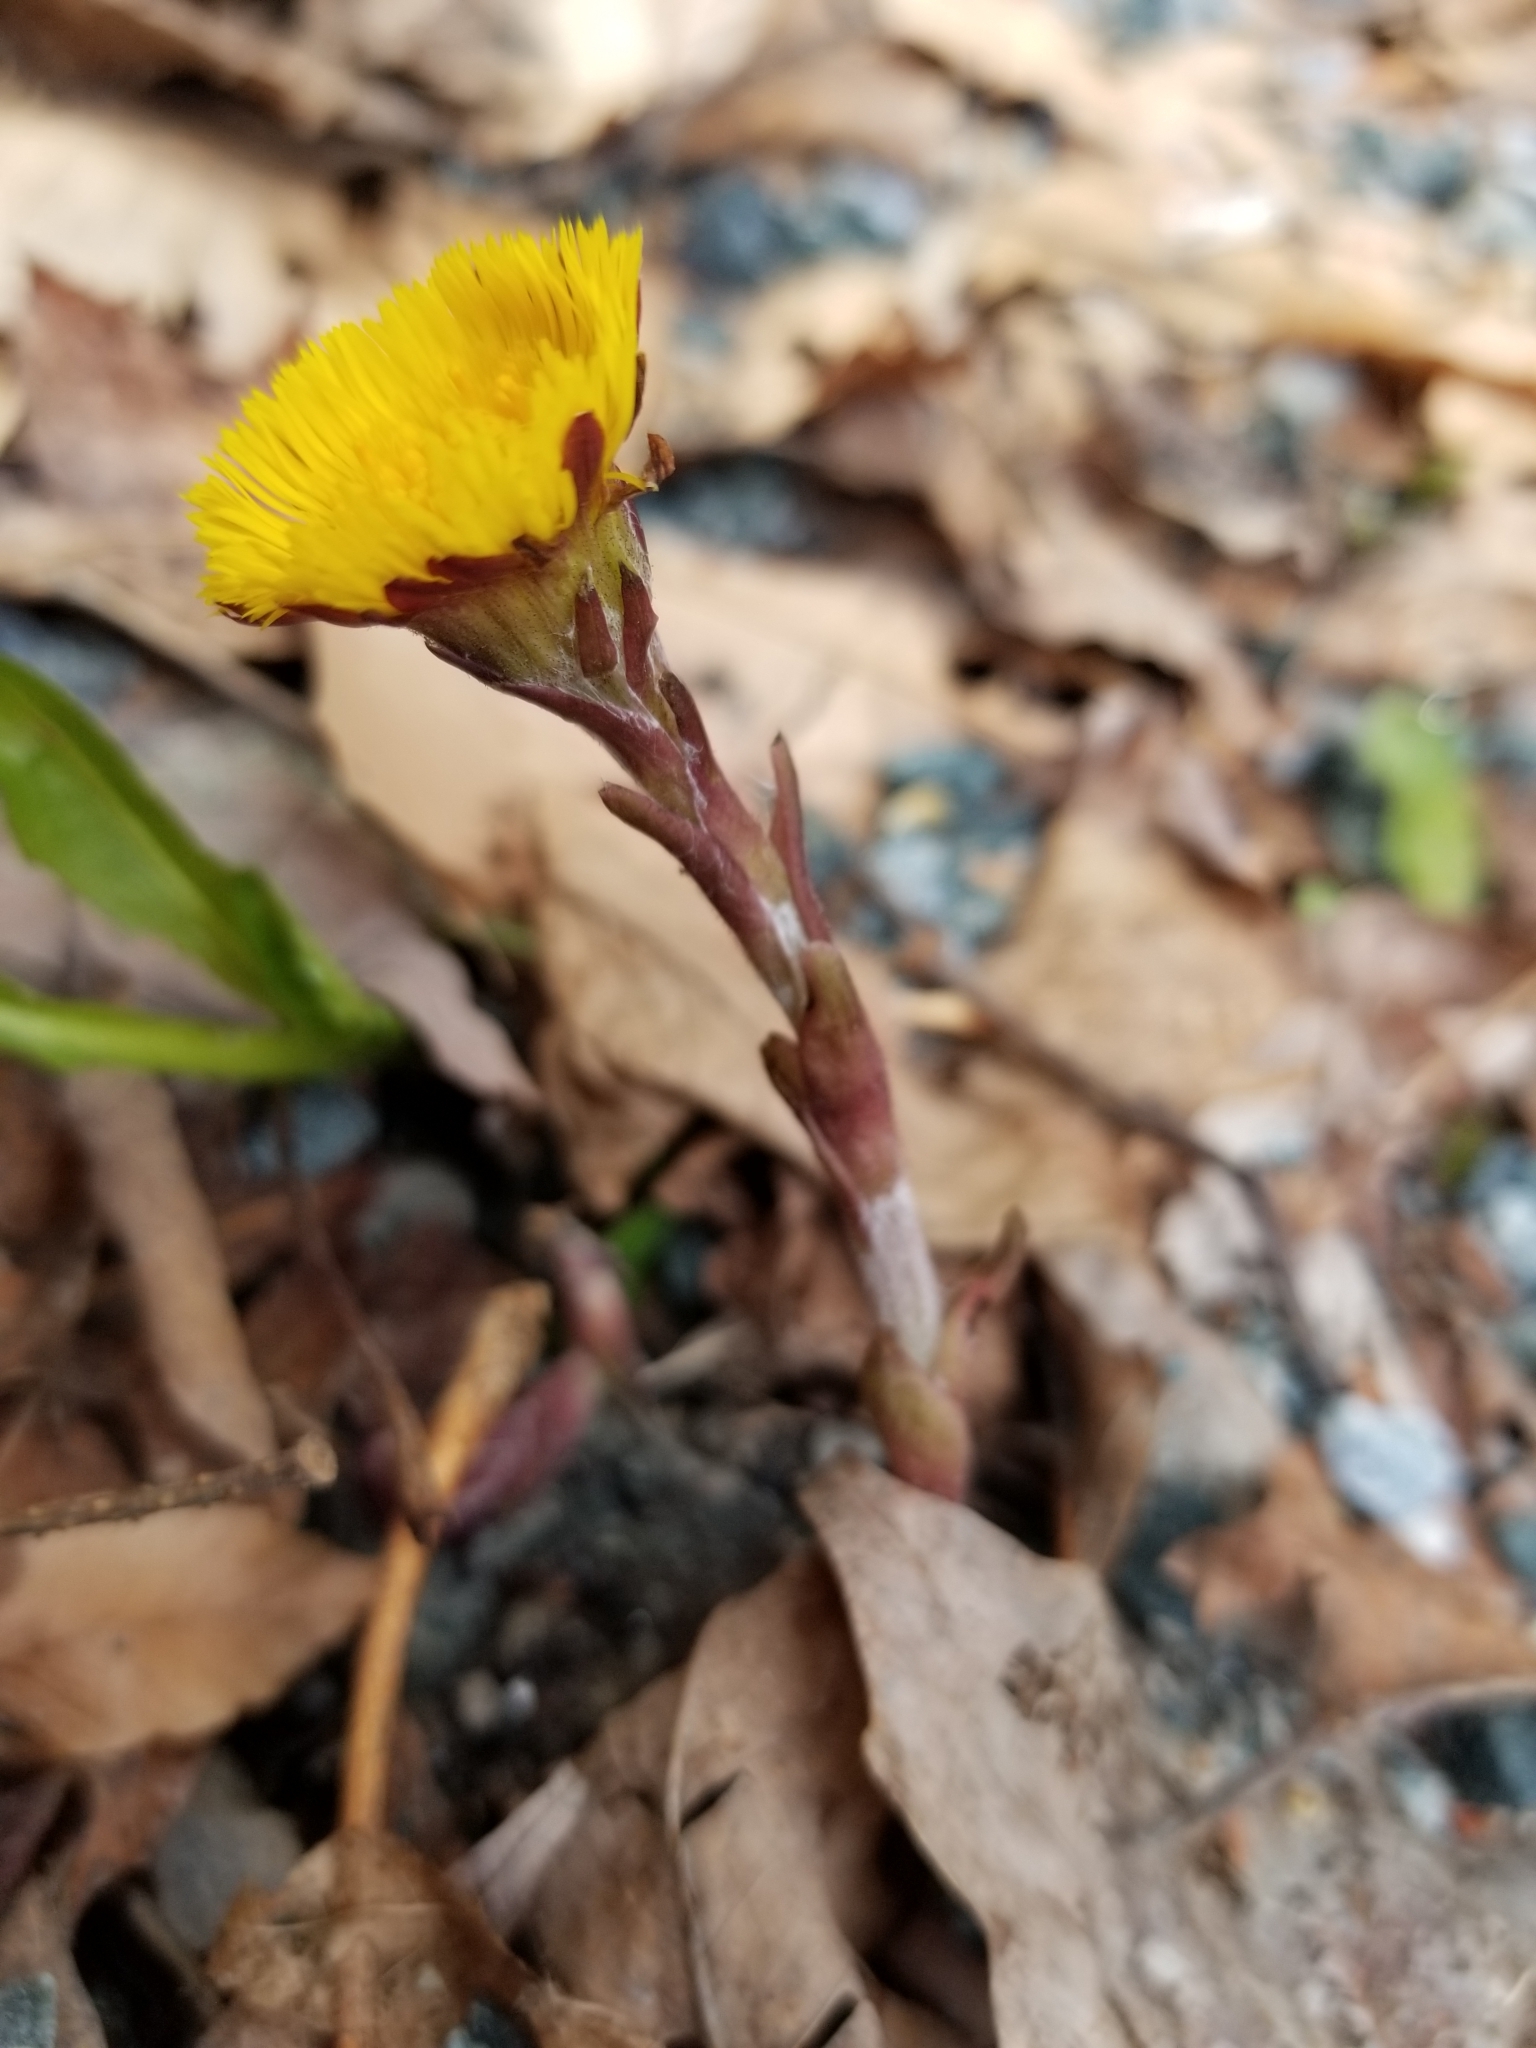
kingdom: Plantae
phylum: Tracheophyta
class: Magnoliopsida
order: Asterales
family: Asteraceae
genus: Tussilago
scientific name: Tussilago farfara
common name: Coltsfoot
